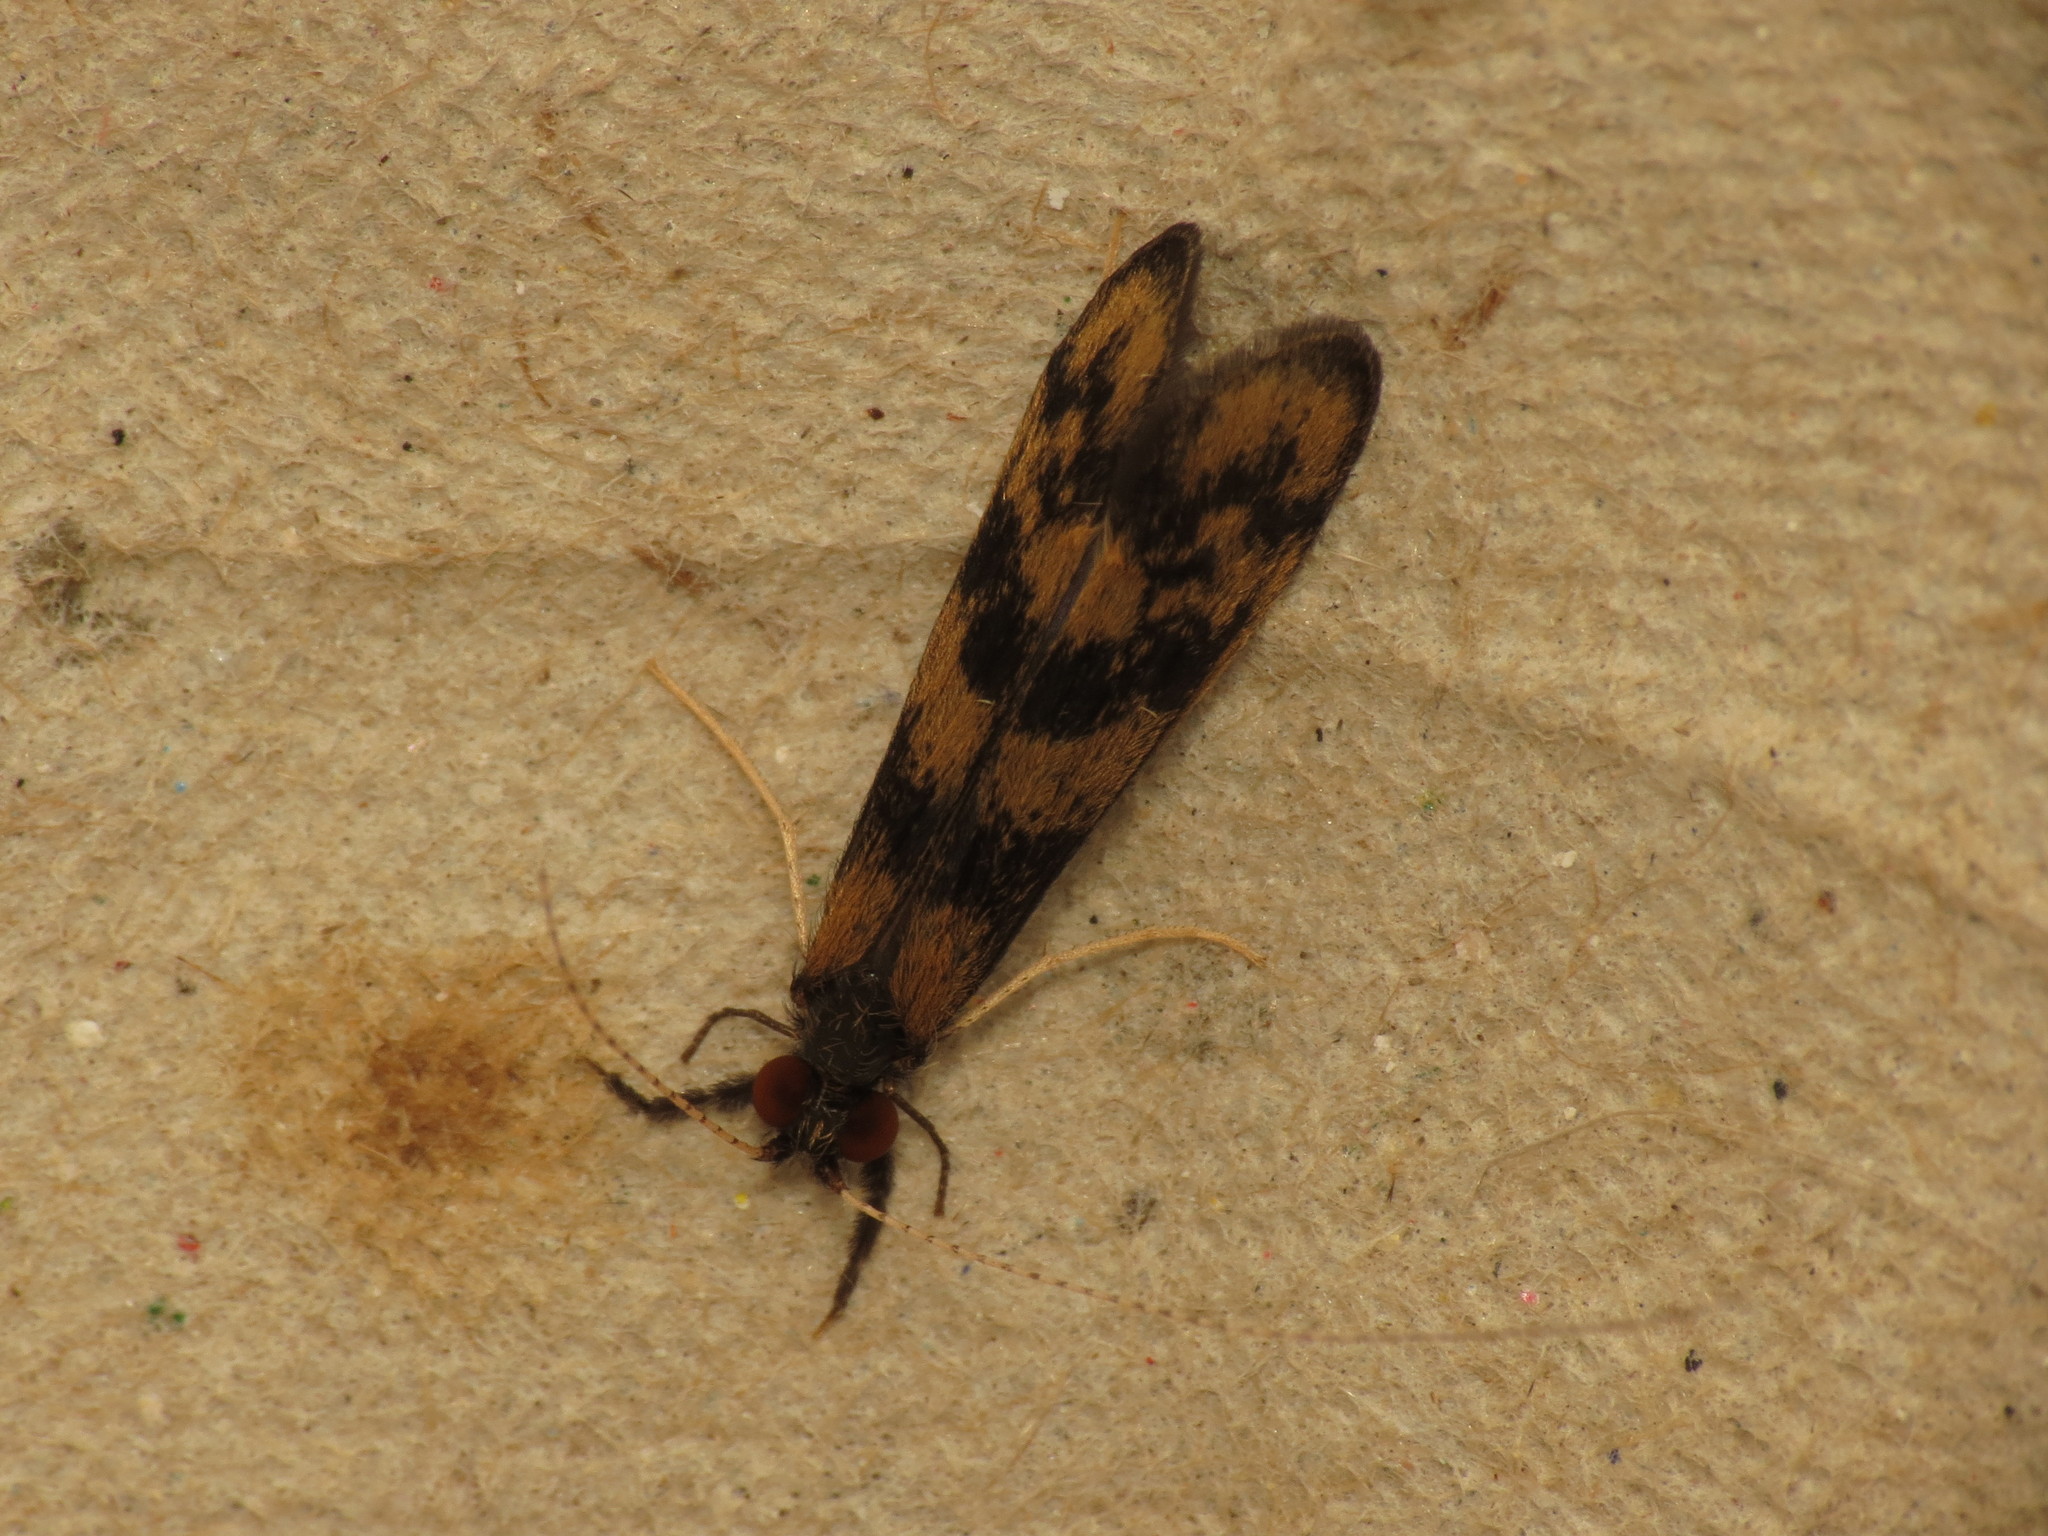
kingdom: Animalia
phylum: Arthropoda
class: Insecta
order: Trichoptera
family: Leptoceridae
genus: Mystacides
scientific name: Mystacides longicornis
